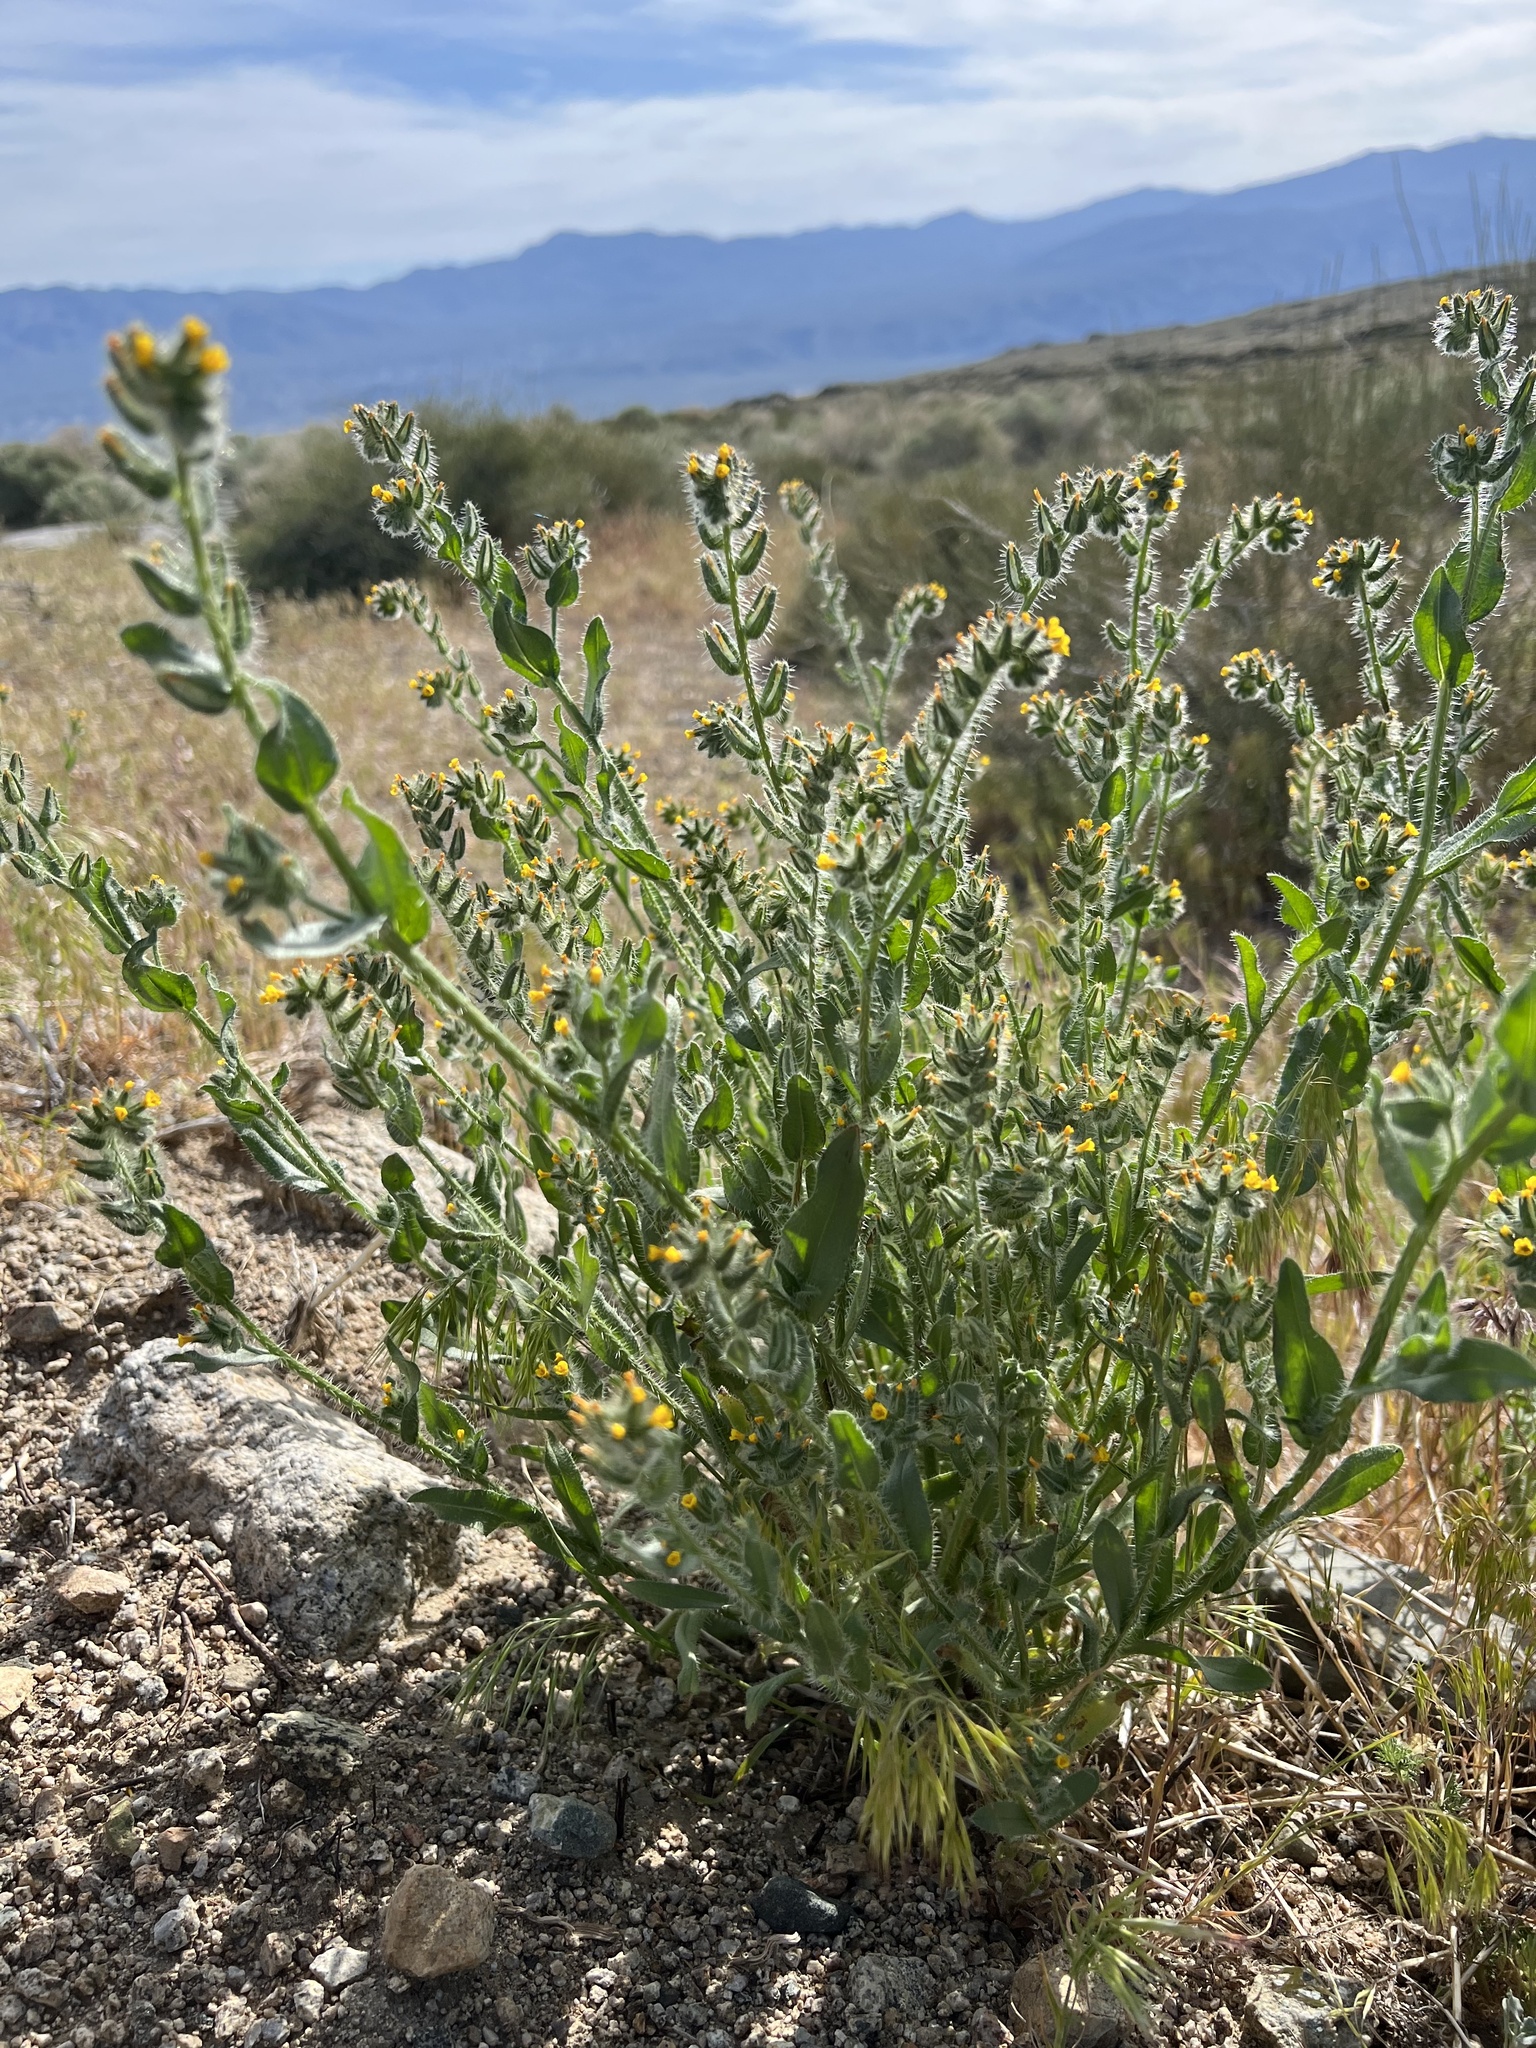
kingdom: Plantae
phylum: Tracheophyta
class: Magnoliopsida
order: Boraginales
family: Boraginaceae
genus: Amsinckia
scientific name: Amsinckia tessellata
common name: Tessellate fiddleneck
